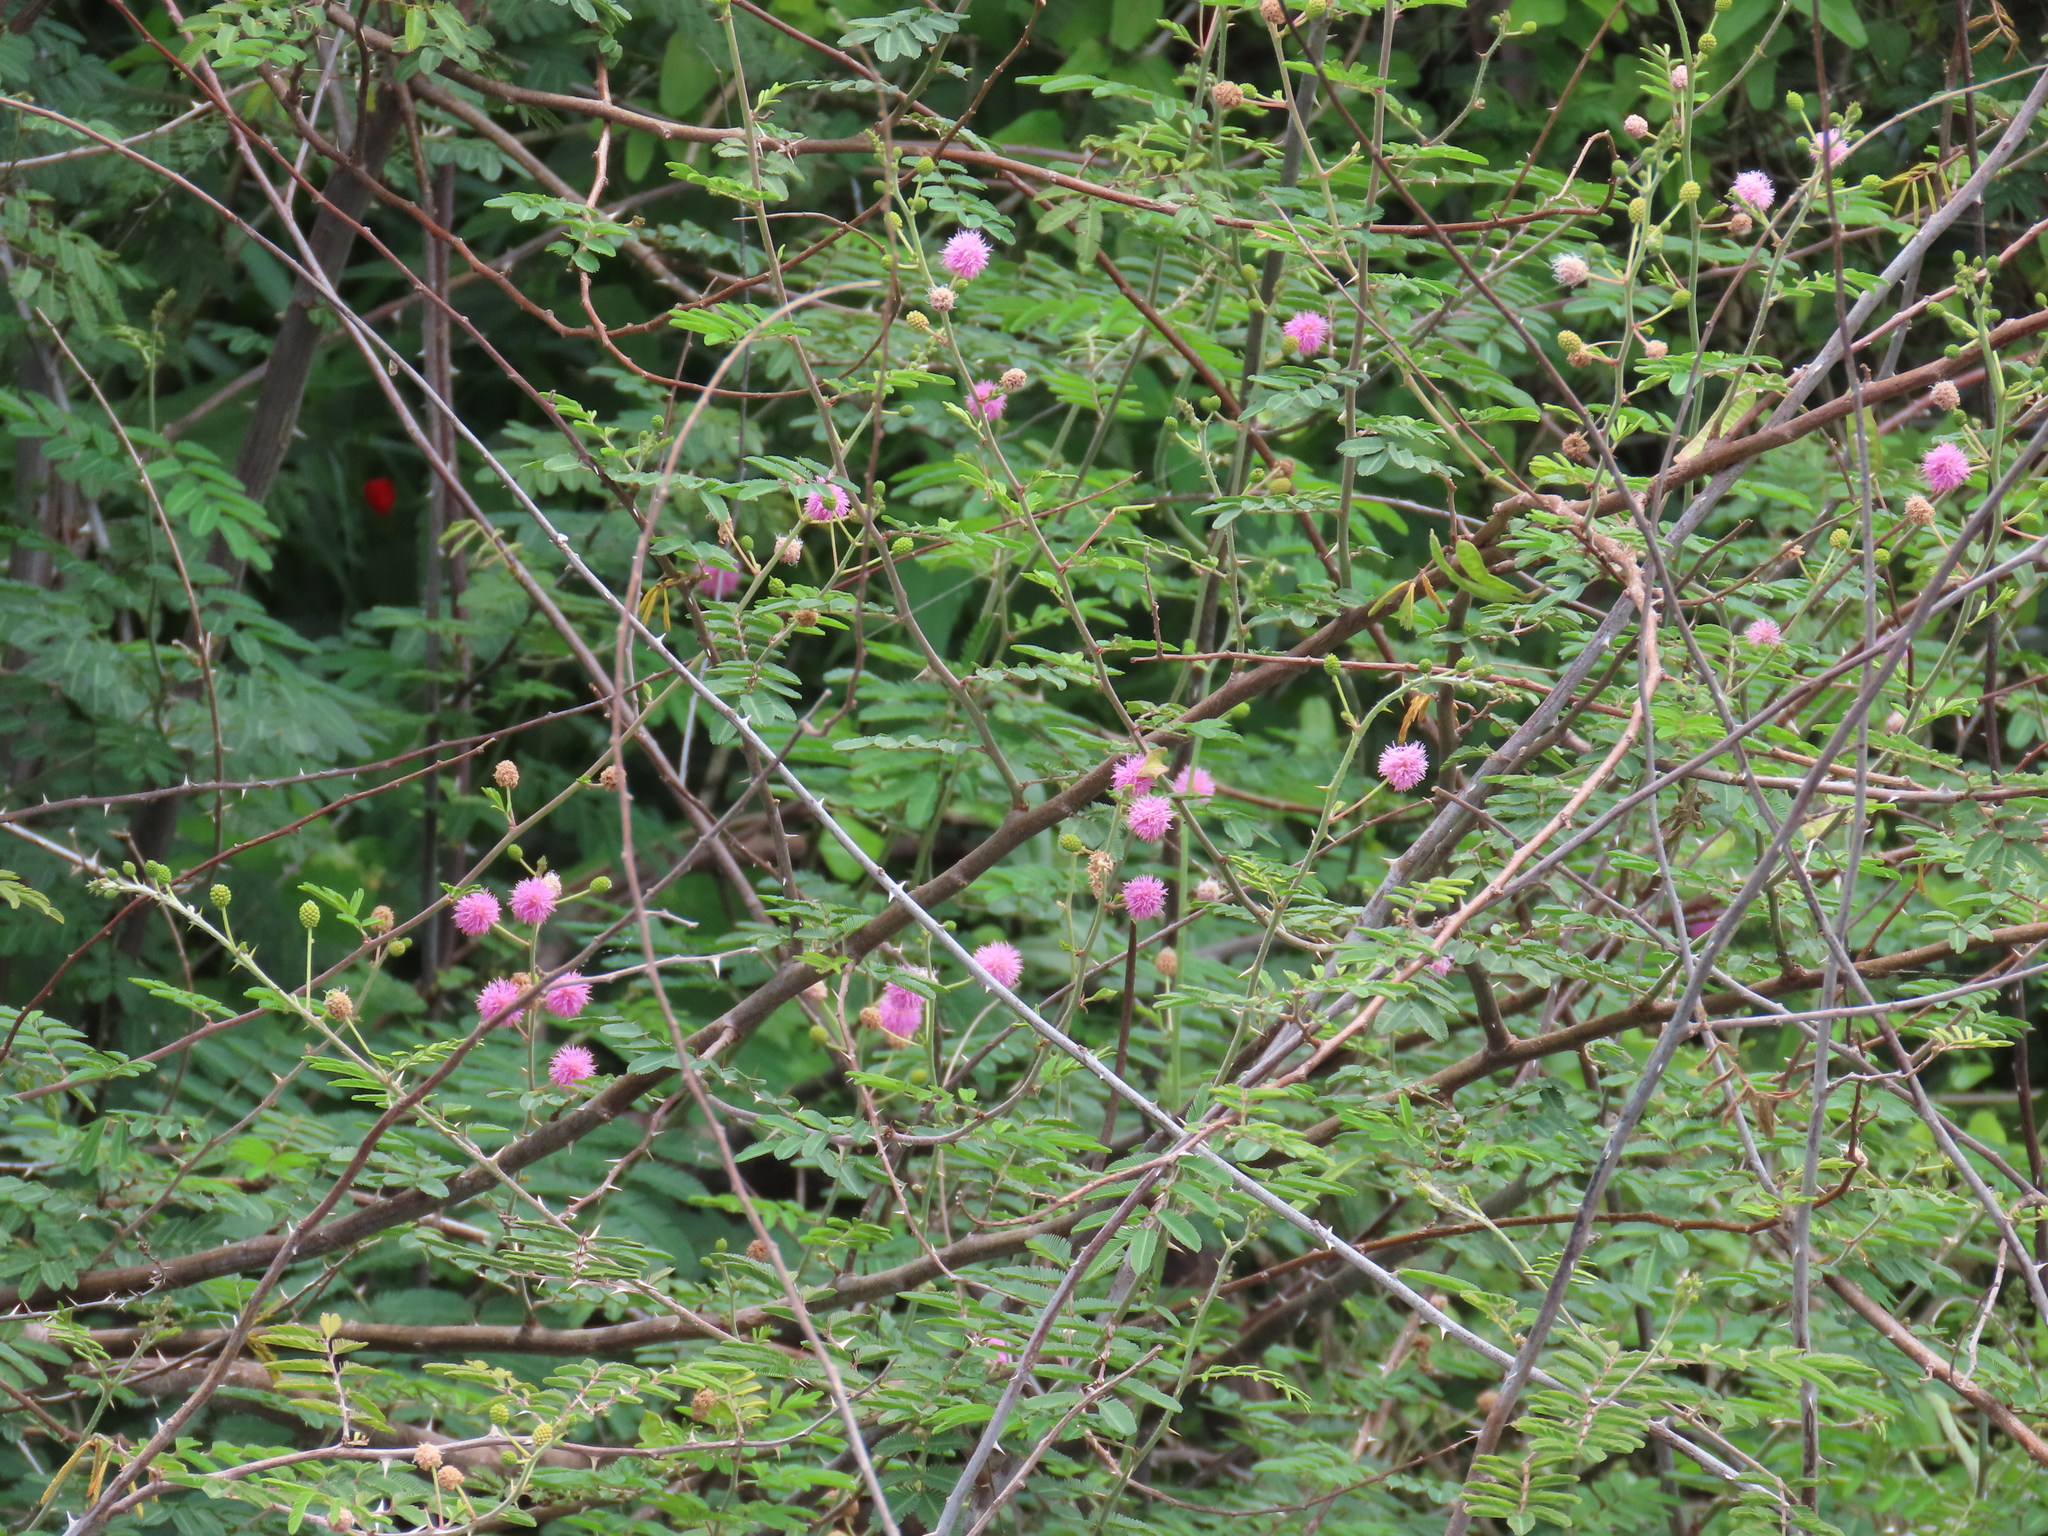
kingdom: Plantae
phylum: Tracheophyta
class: Magnoliopsida
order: Fabales
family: Fabaceae
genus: Mimosa
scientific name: Mimosa pigra
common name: Black mimosa
